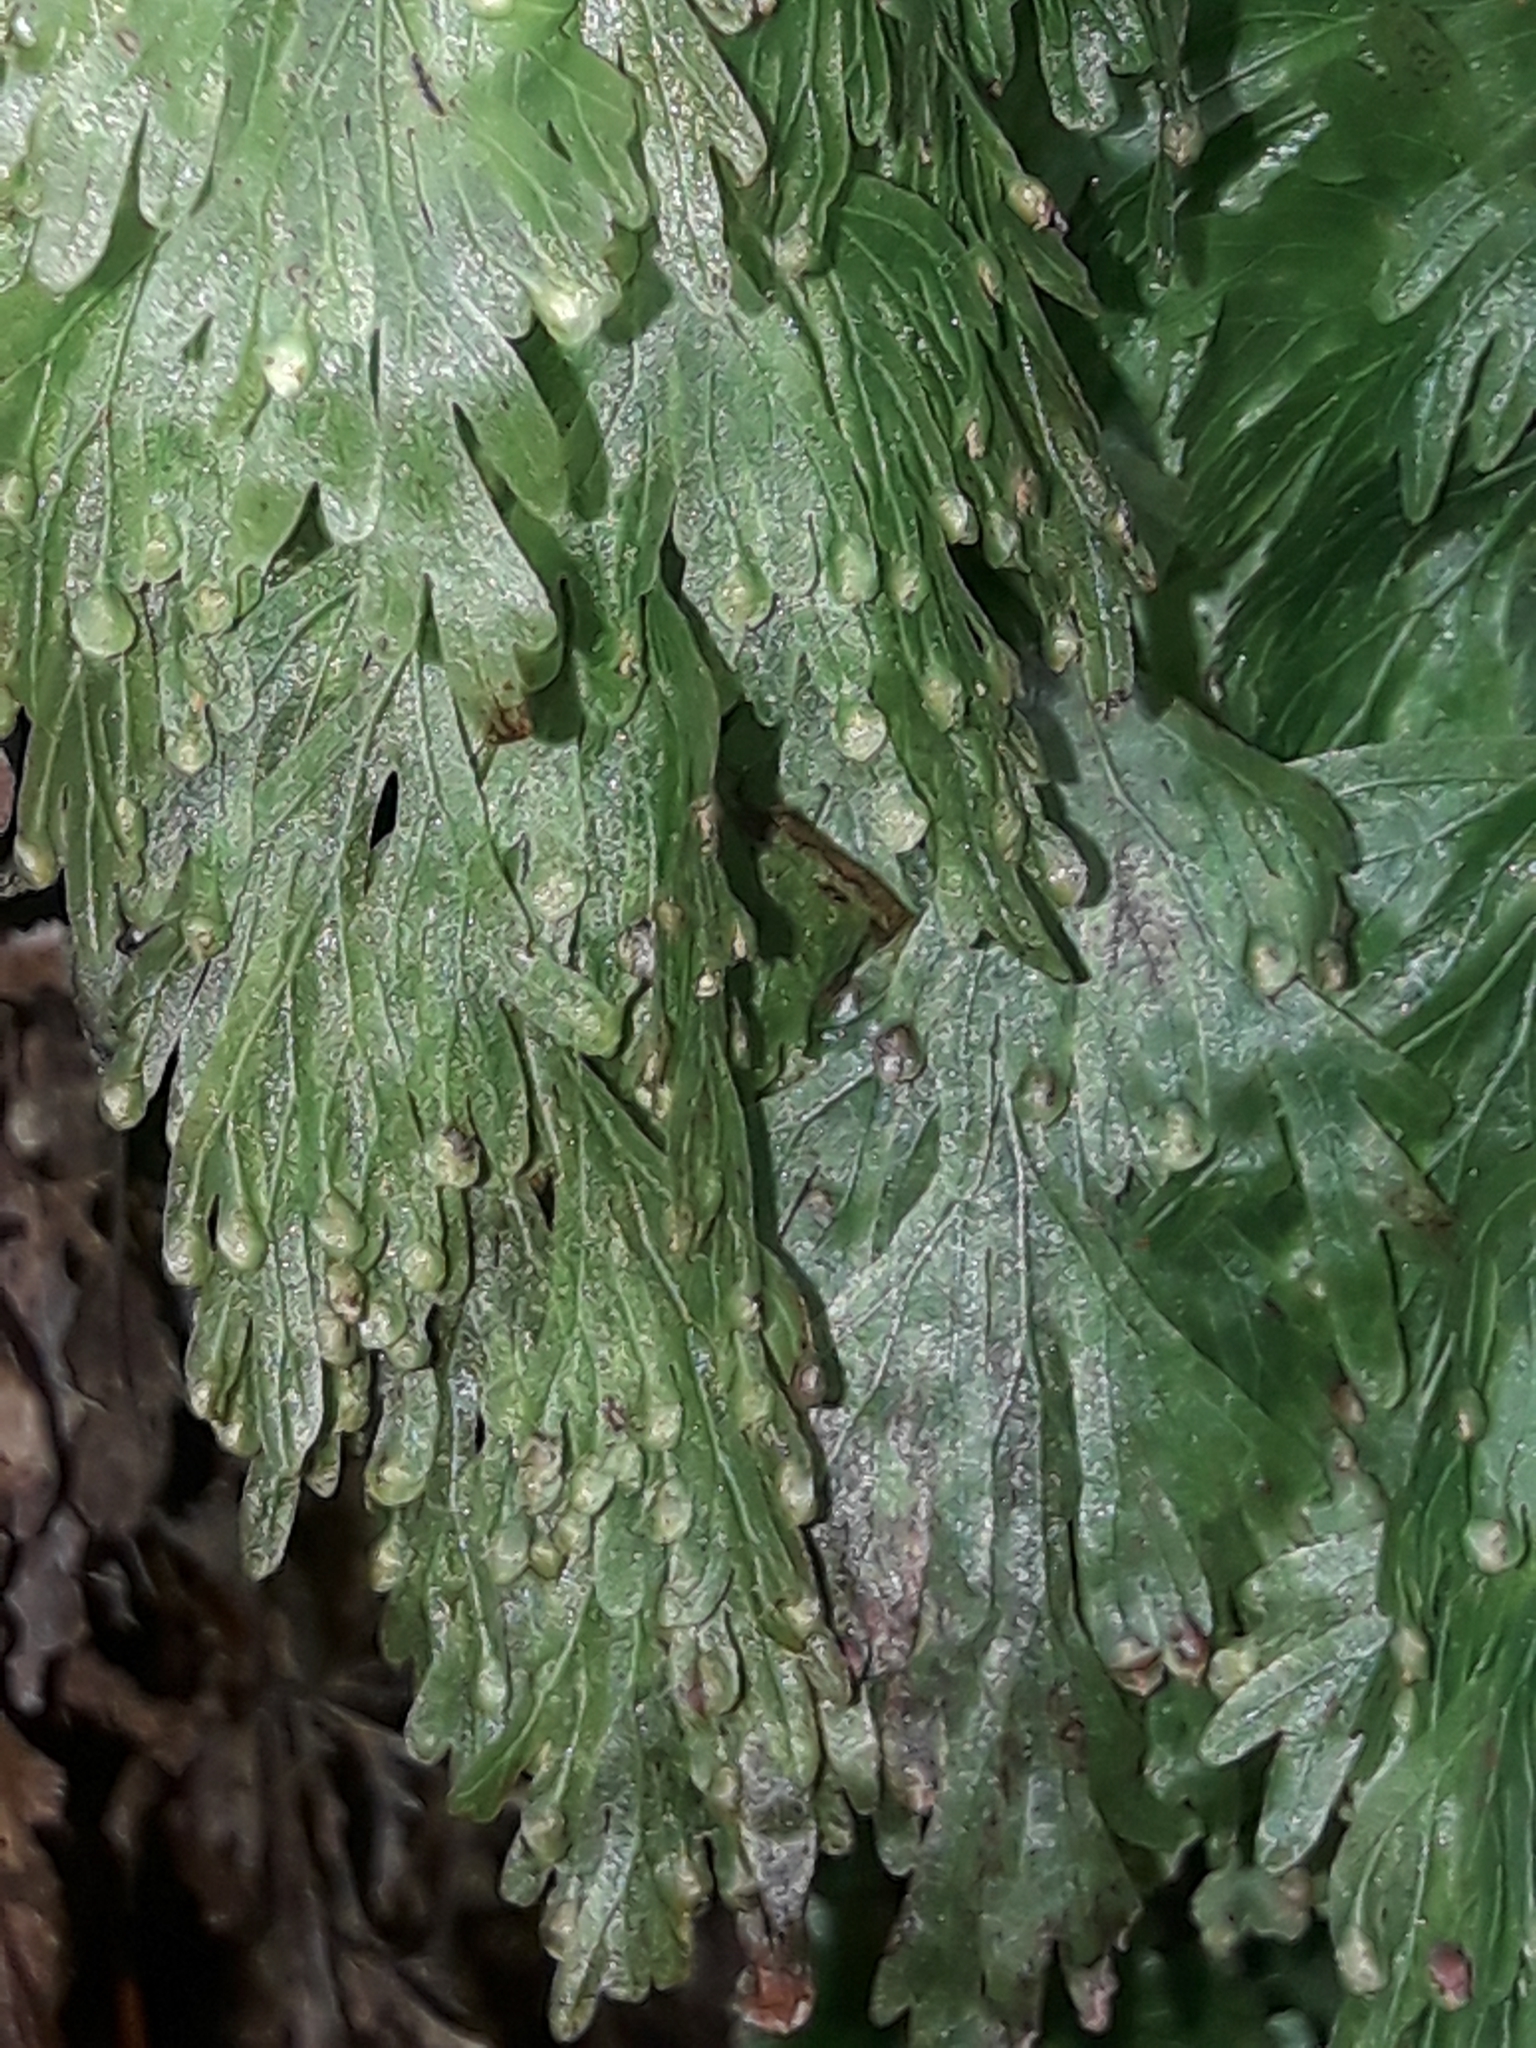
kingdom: Plantae
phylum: Tracheophyta
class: Polypodiopsida
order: Hymenophyllales
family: Hymenophyllaceae
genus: Hymenophyllum
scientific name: Hymenophyllum flabellatum
